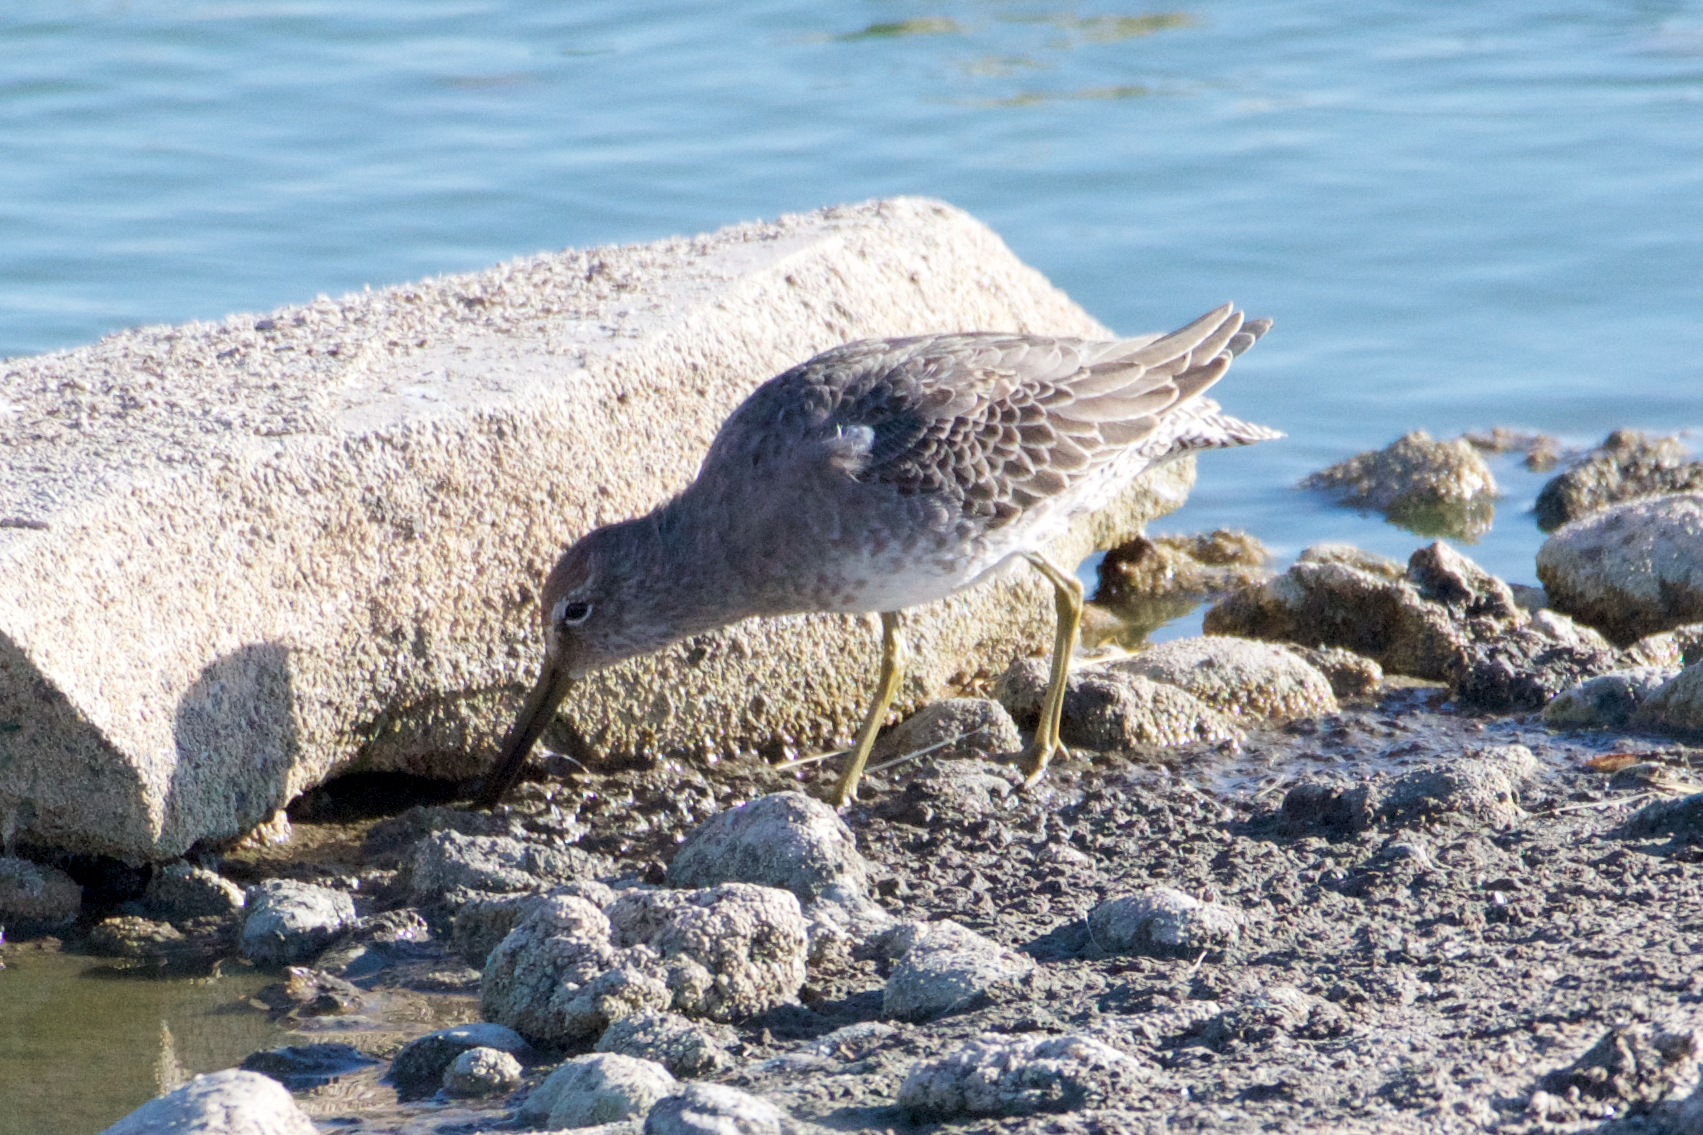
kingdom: Animalia
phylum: Chordata
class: Aves
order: Charadriiformes
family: Scolopacidae
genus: Limnodromus
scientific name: Limnodromus scolopaceus
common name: Long-billed dowitcher
